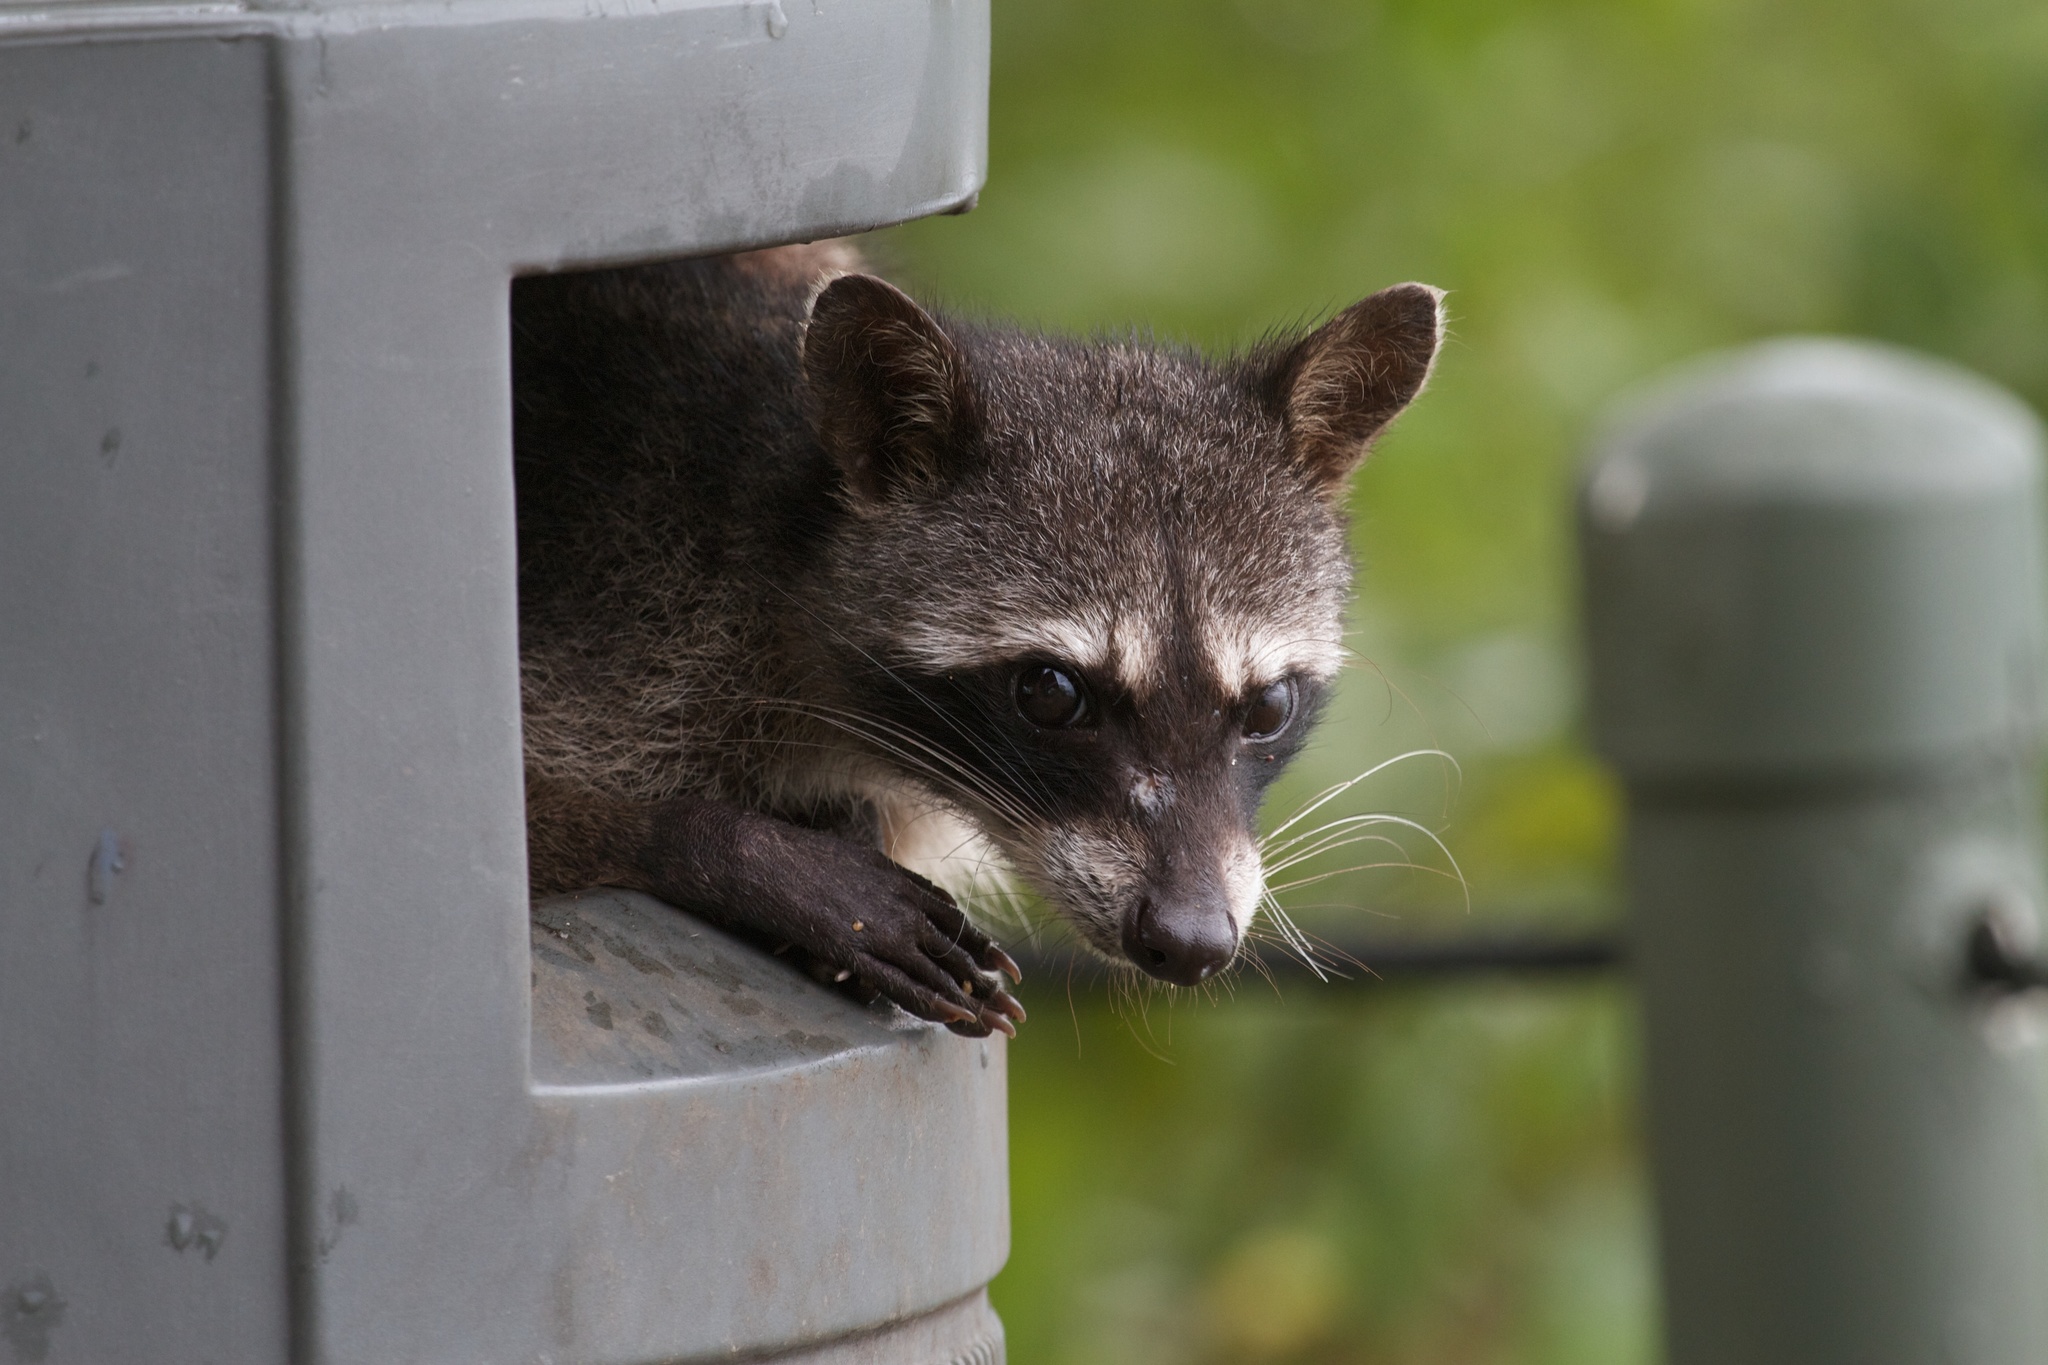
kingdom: Animalia
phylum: Chordata
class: Mammalia
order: Carnivora
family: Procyonidae
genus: Procyon
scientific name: Procyon lotor
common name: Raccoon
